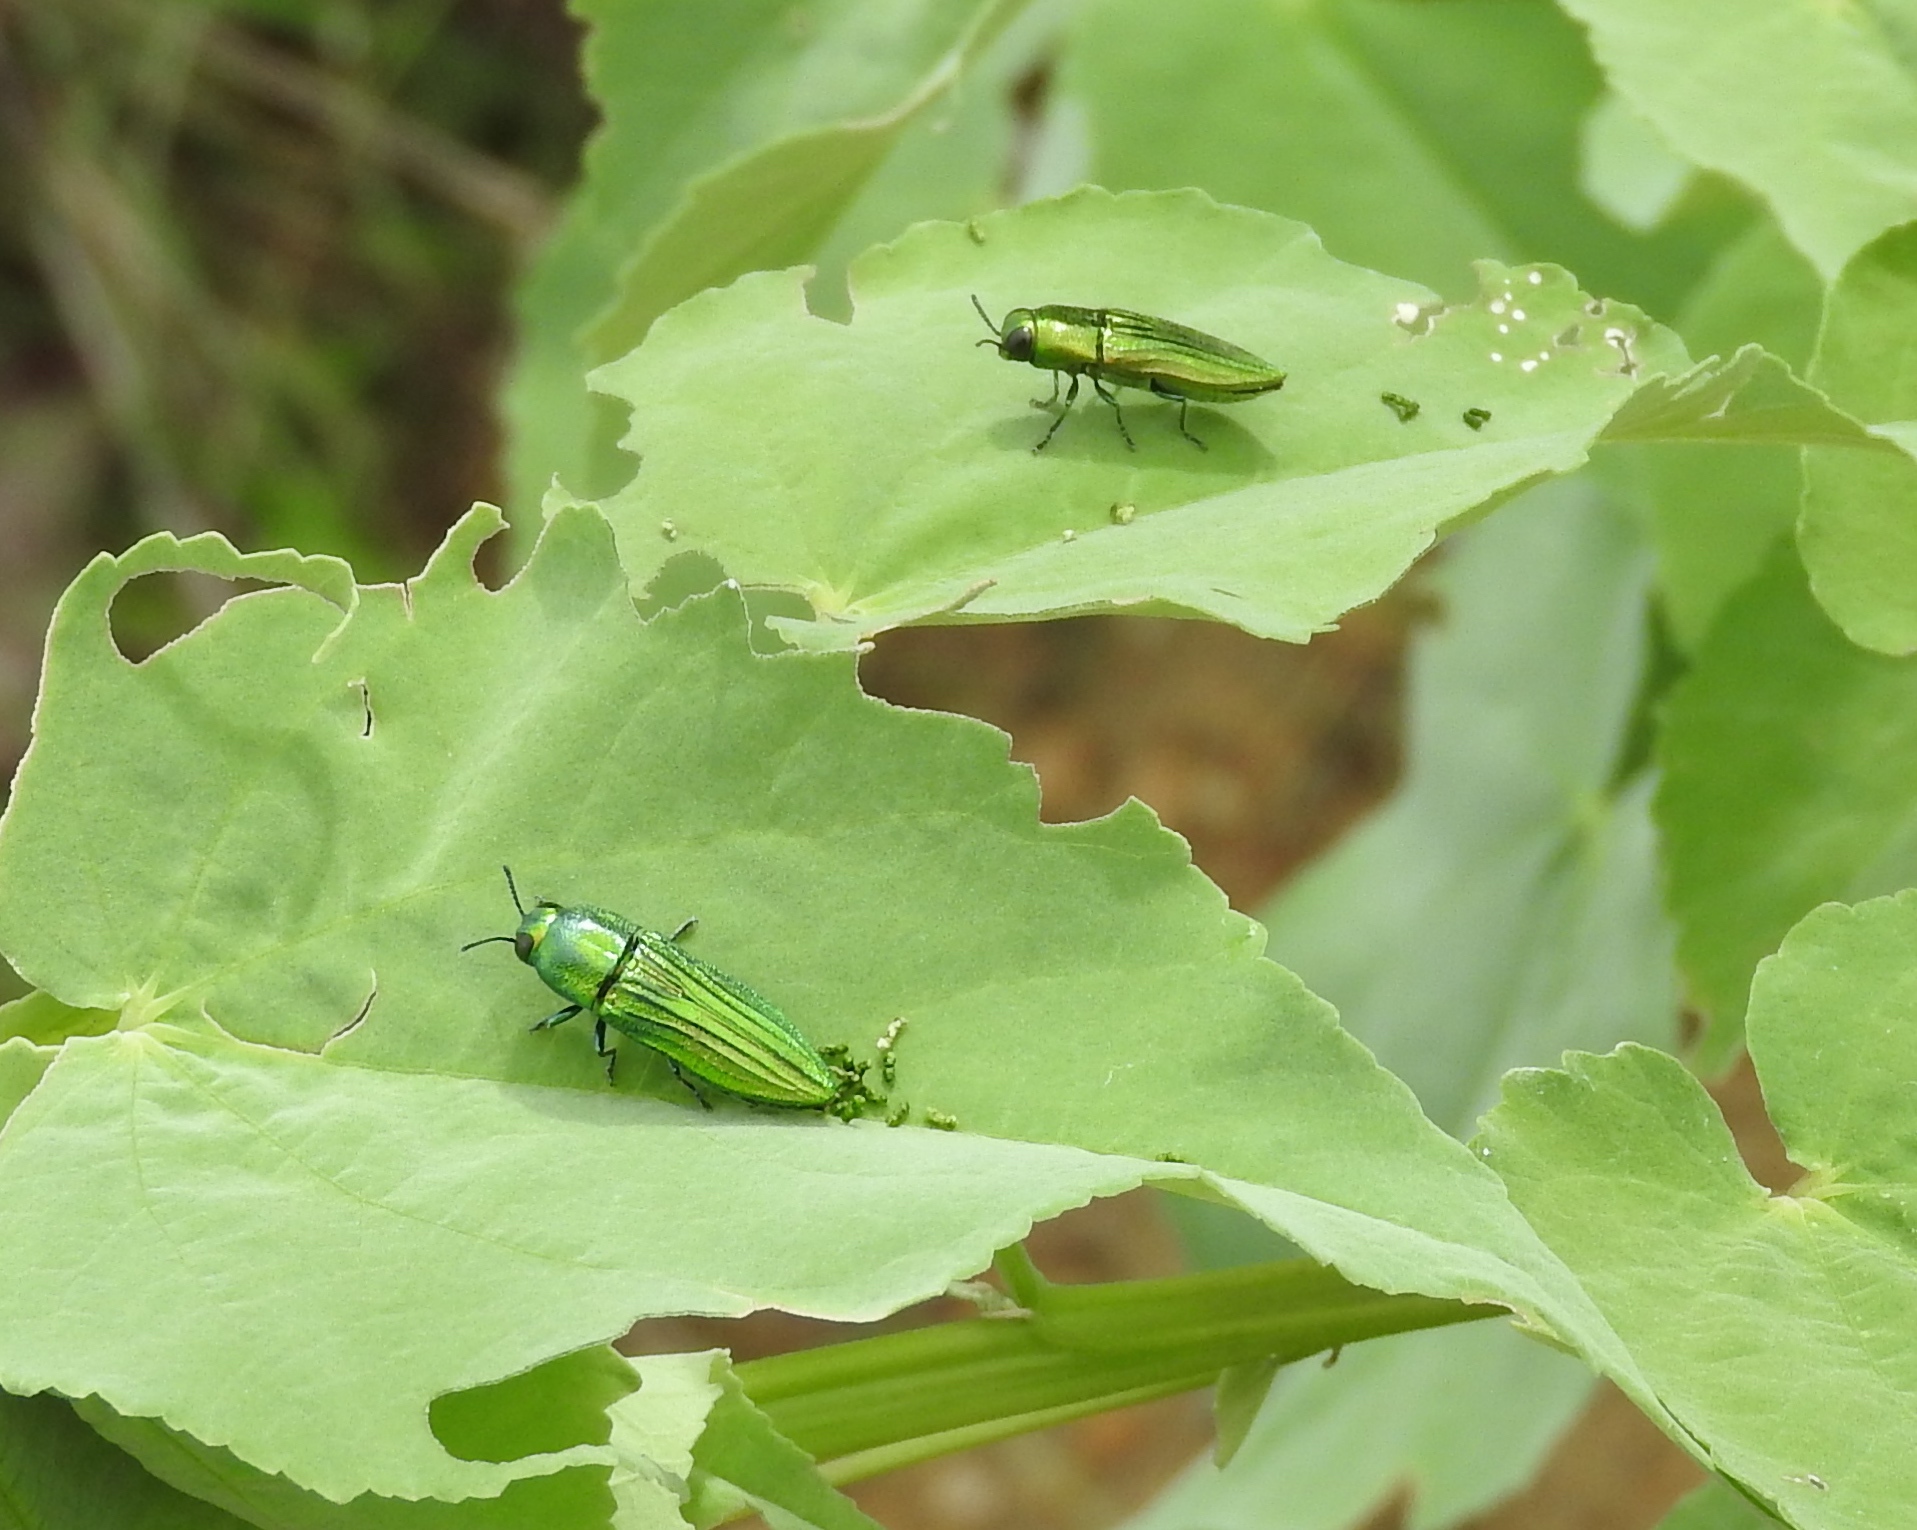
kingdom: Animalia
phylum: Arthropoda
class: Insecta
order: Coleoptera
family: Buprestidae
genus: Agaeocera
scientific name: Agaeocera
